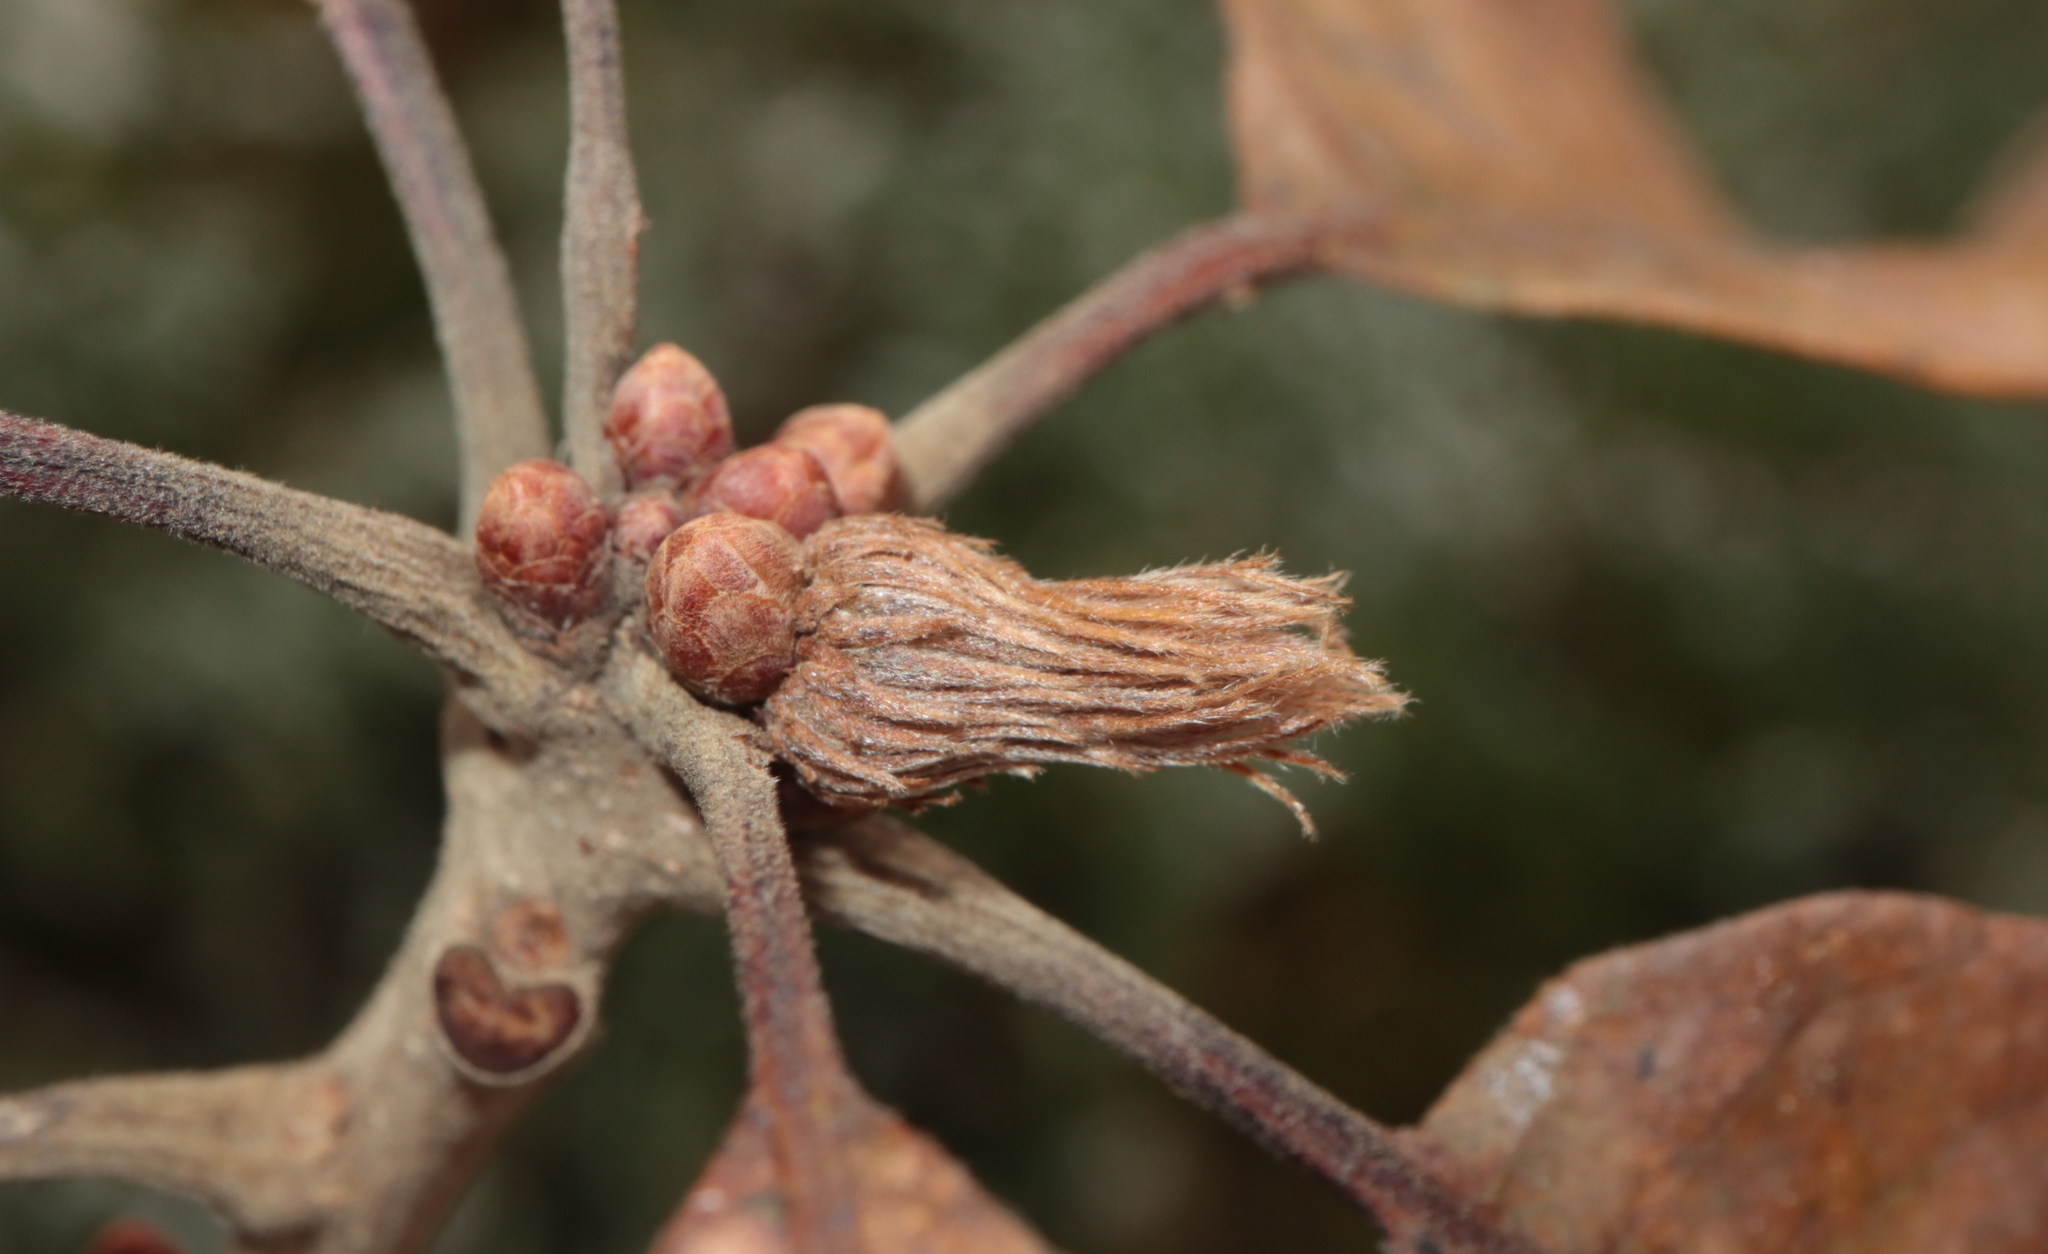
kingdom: Animalia
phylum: Arthropoda
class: Insecta
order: Hymenoptera
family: Cynipidae
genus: Andricus
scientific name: Andricus
